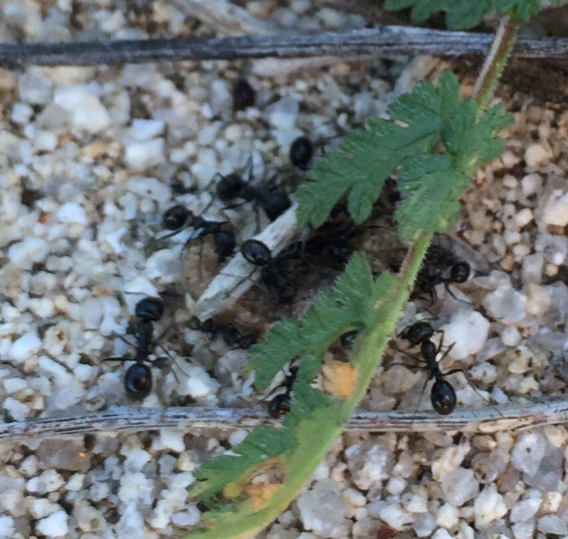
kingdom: Animalia
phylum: Arthropoda
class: Insecta
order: Hymenoptera
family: Formicidae
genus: Messor
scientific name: Messor pergandei
